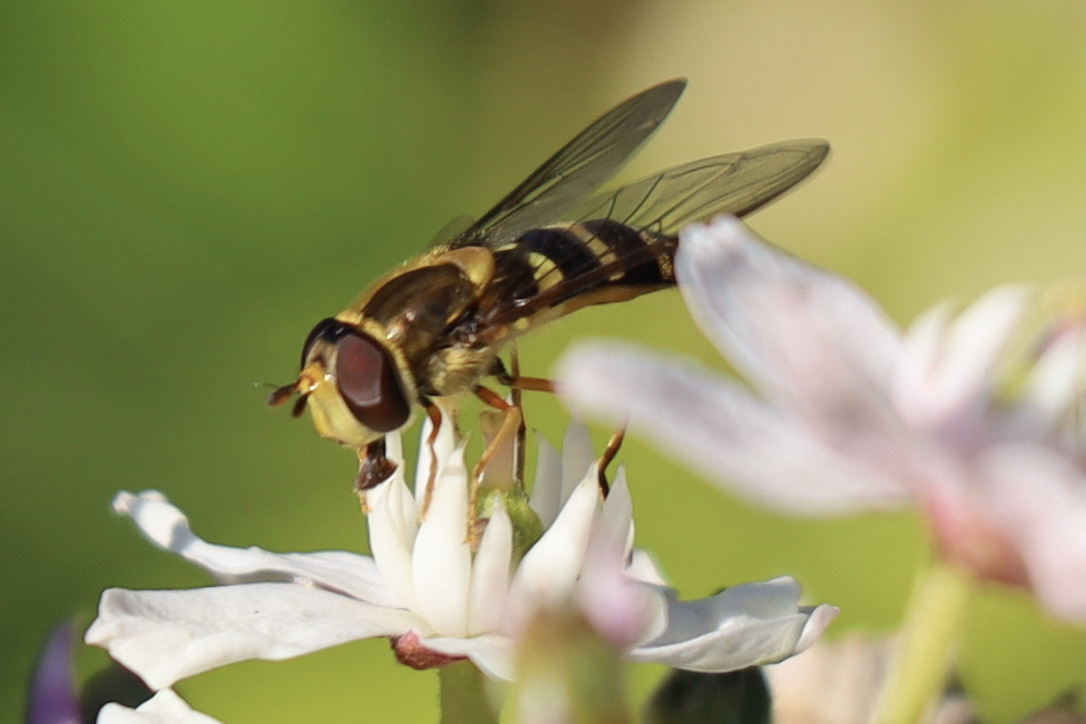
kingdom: Animalia
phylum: Arthropoda
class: Insecta
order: Diptera
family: Syrphidae
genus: Syrphus
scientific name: Syrphus opinator
